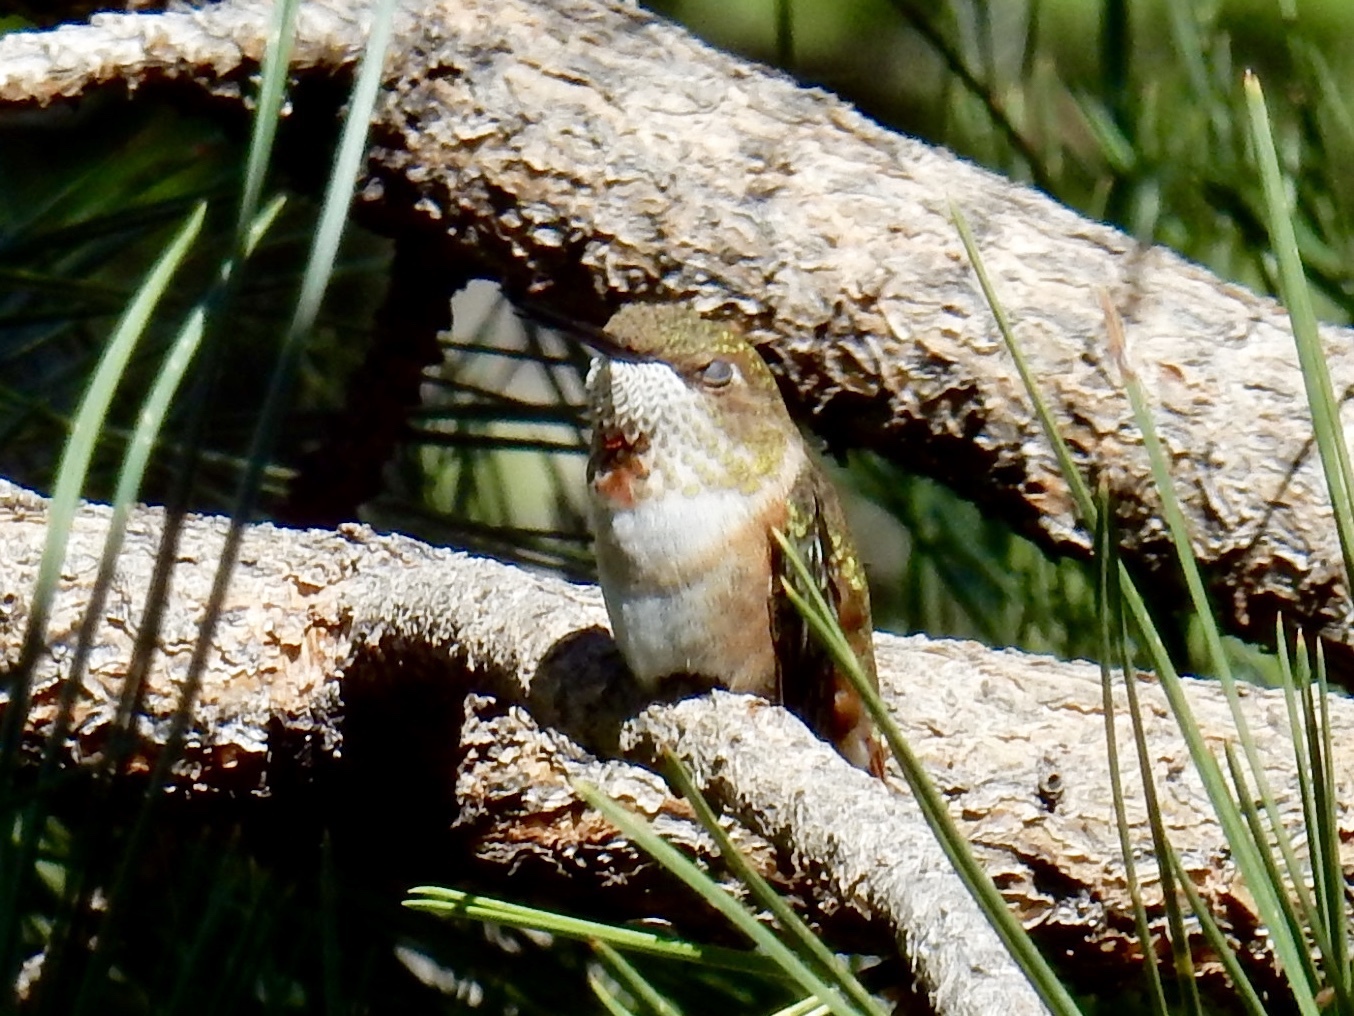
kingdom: Animalia
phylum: Chordata
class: Aves
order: Apodiformes
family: Trochilidae
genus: Selasphorus
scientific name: Selasphorus rufus
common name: Rufous hummingbird
